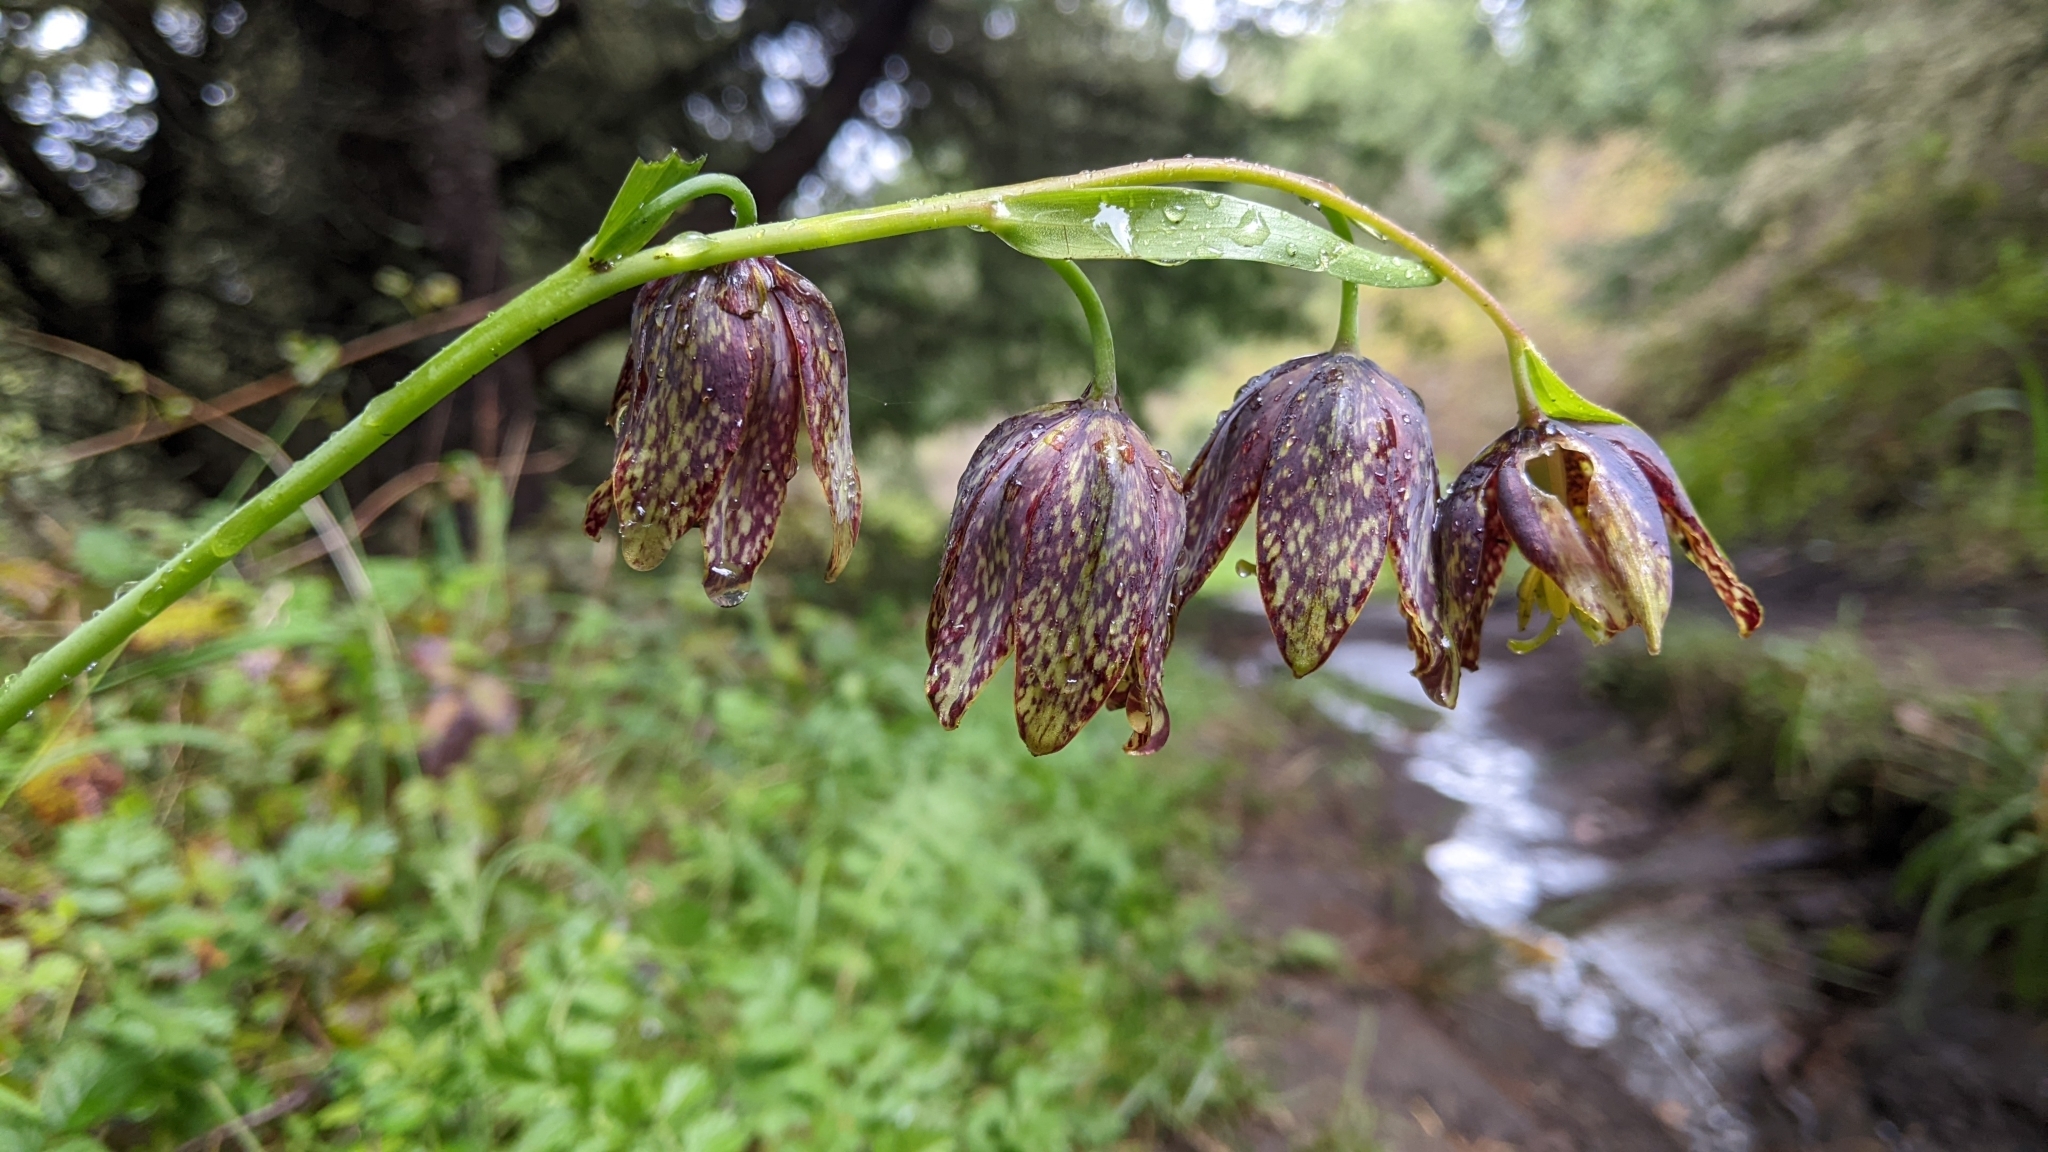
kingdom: Plantae
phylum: Tracheophyta
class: Liliopsida
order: Liliales
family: Liliaceae
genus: Fritillaria
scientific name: Fritillaria affinis
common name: Ojai fritillary
